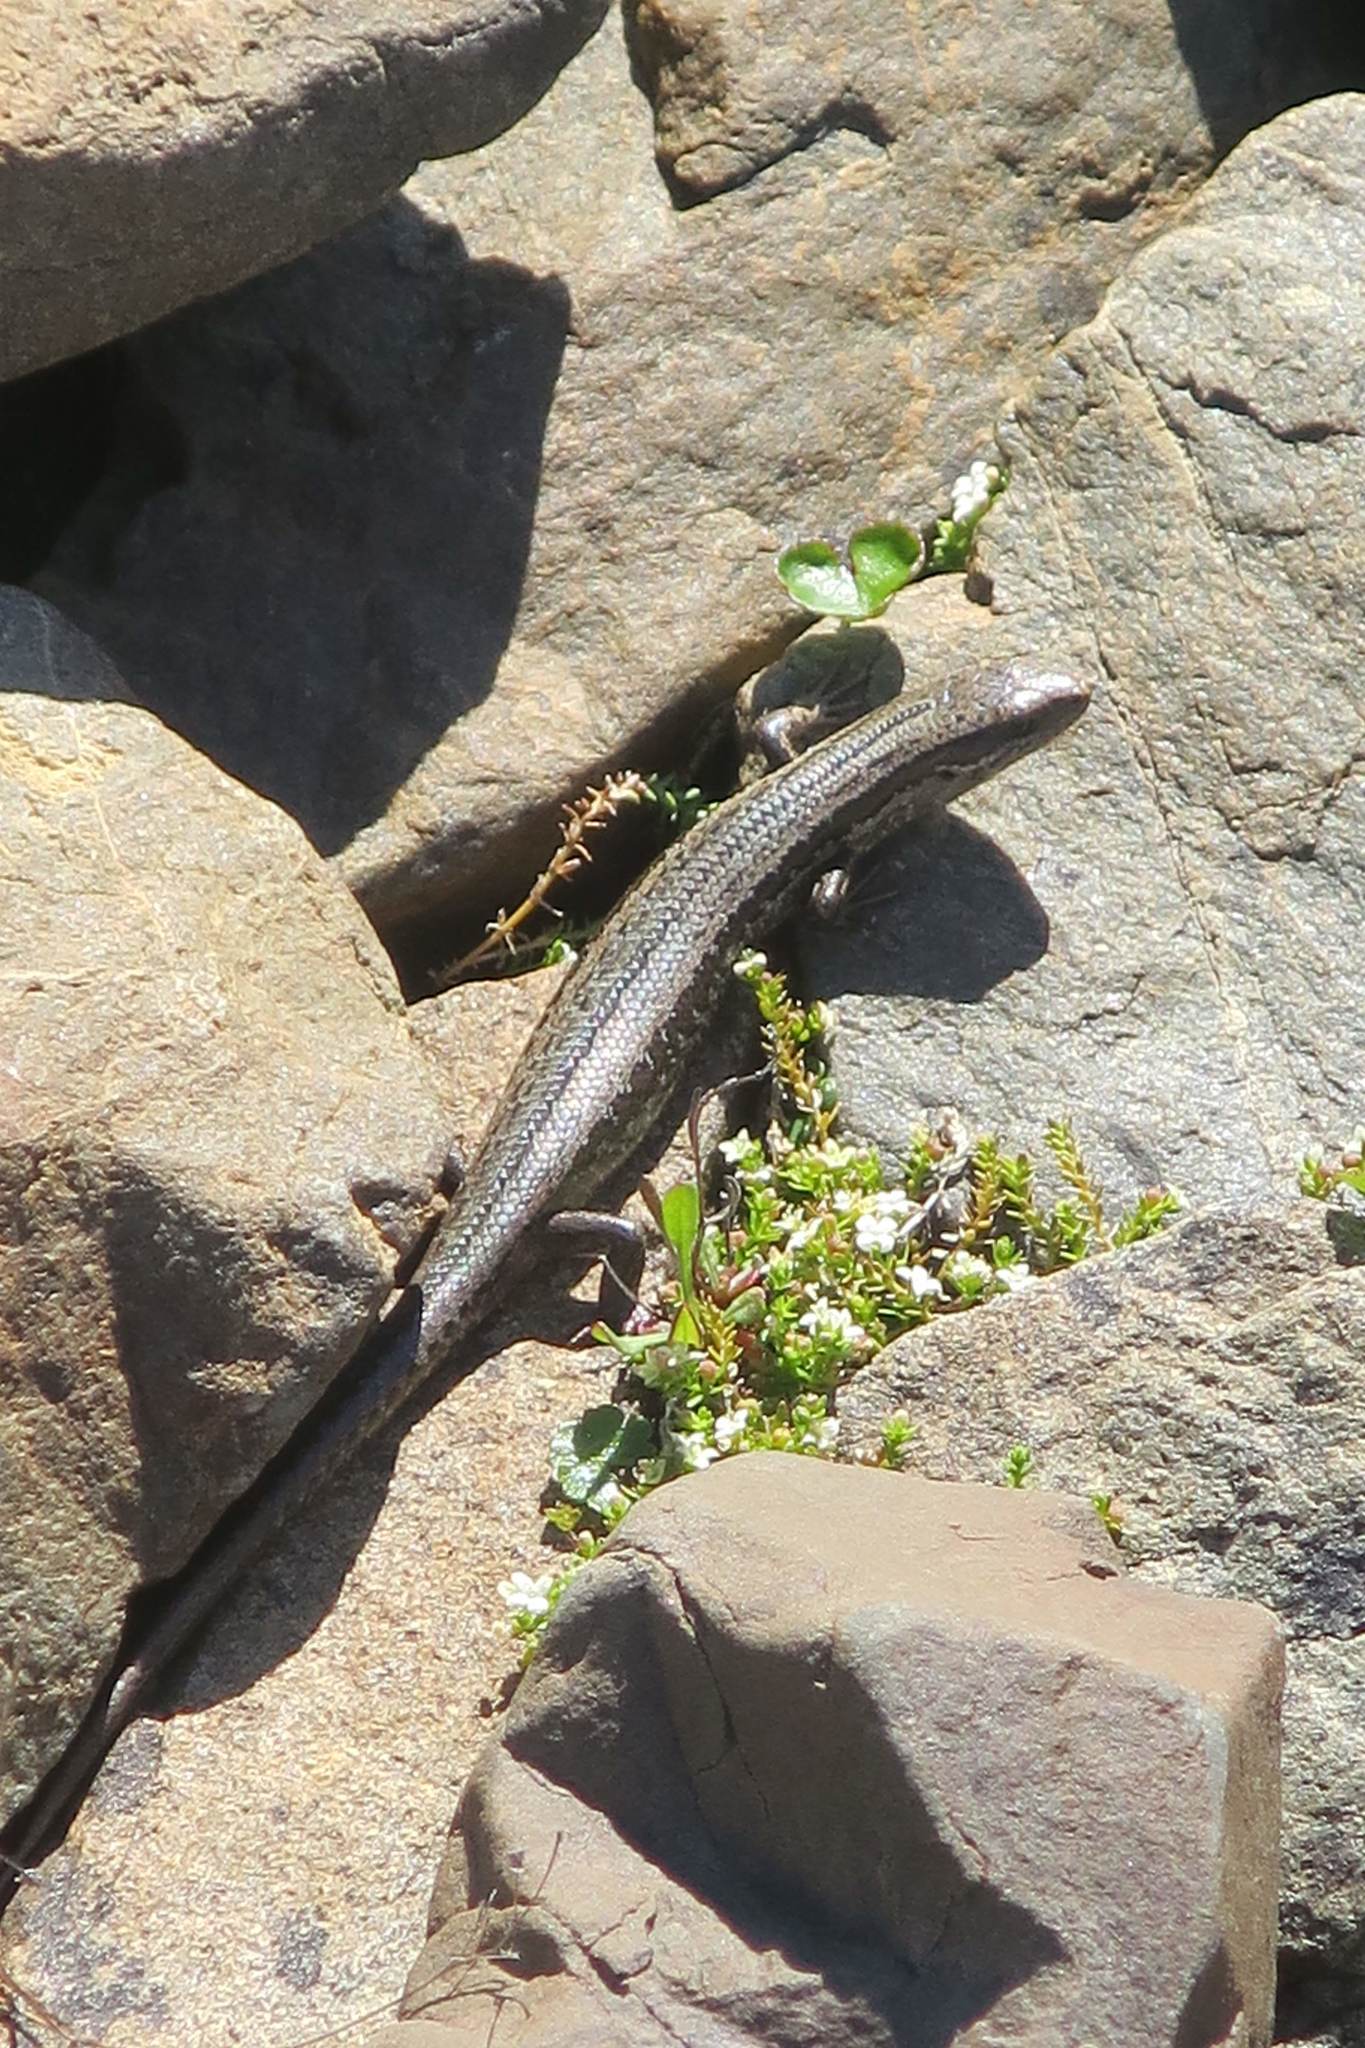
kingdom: Animalia
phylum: Chordata
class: Squamata
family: Scincidae
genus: Oligosoma
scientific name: Oligosoma maccanni
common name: Mccann’s skink
